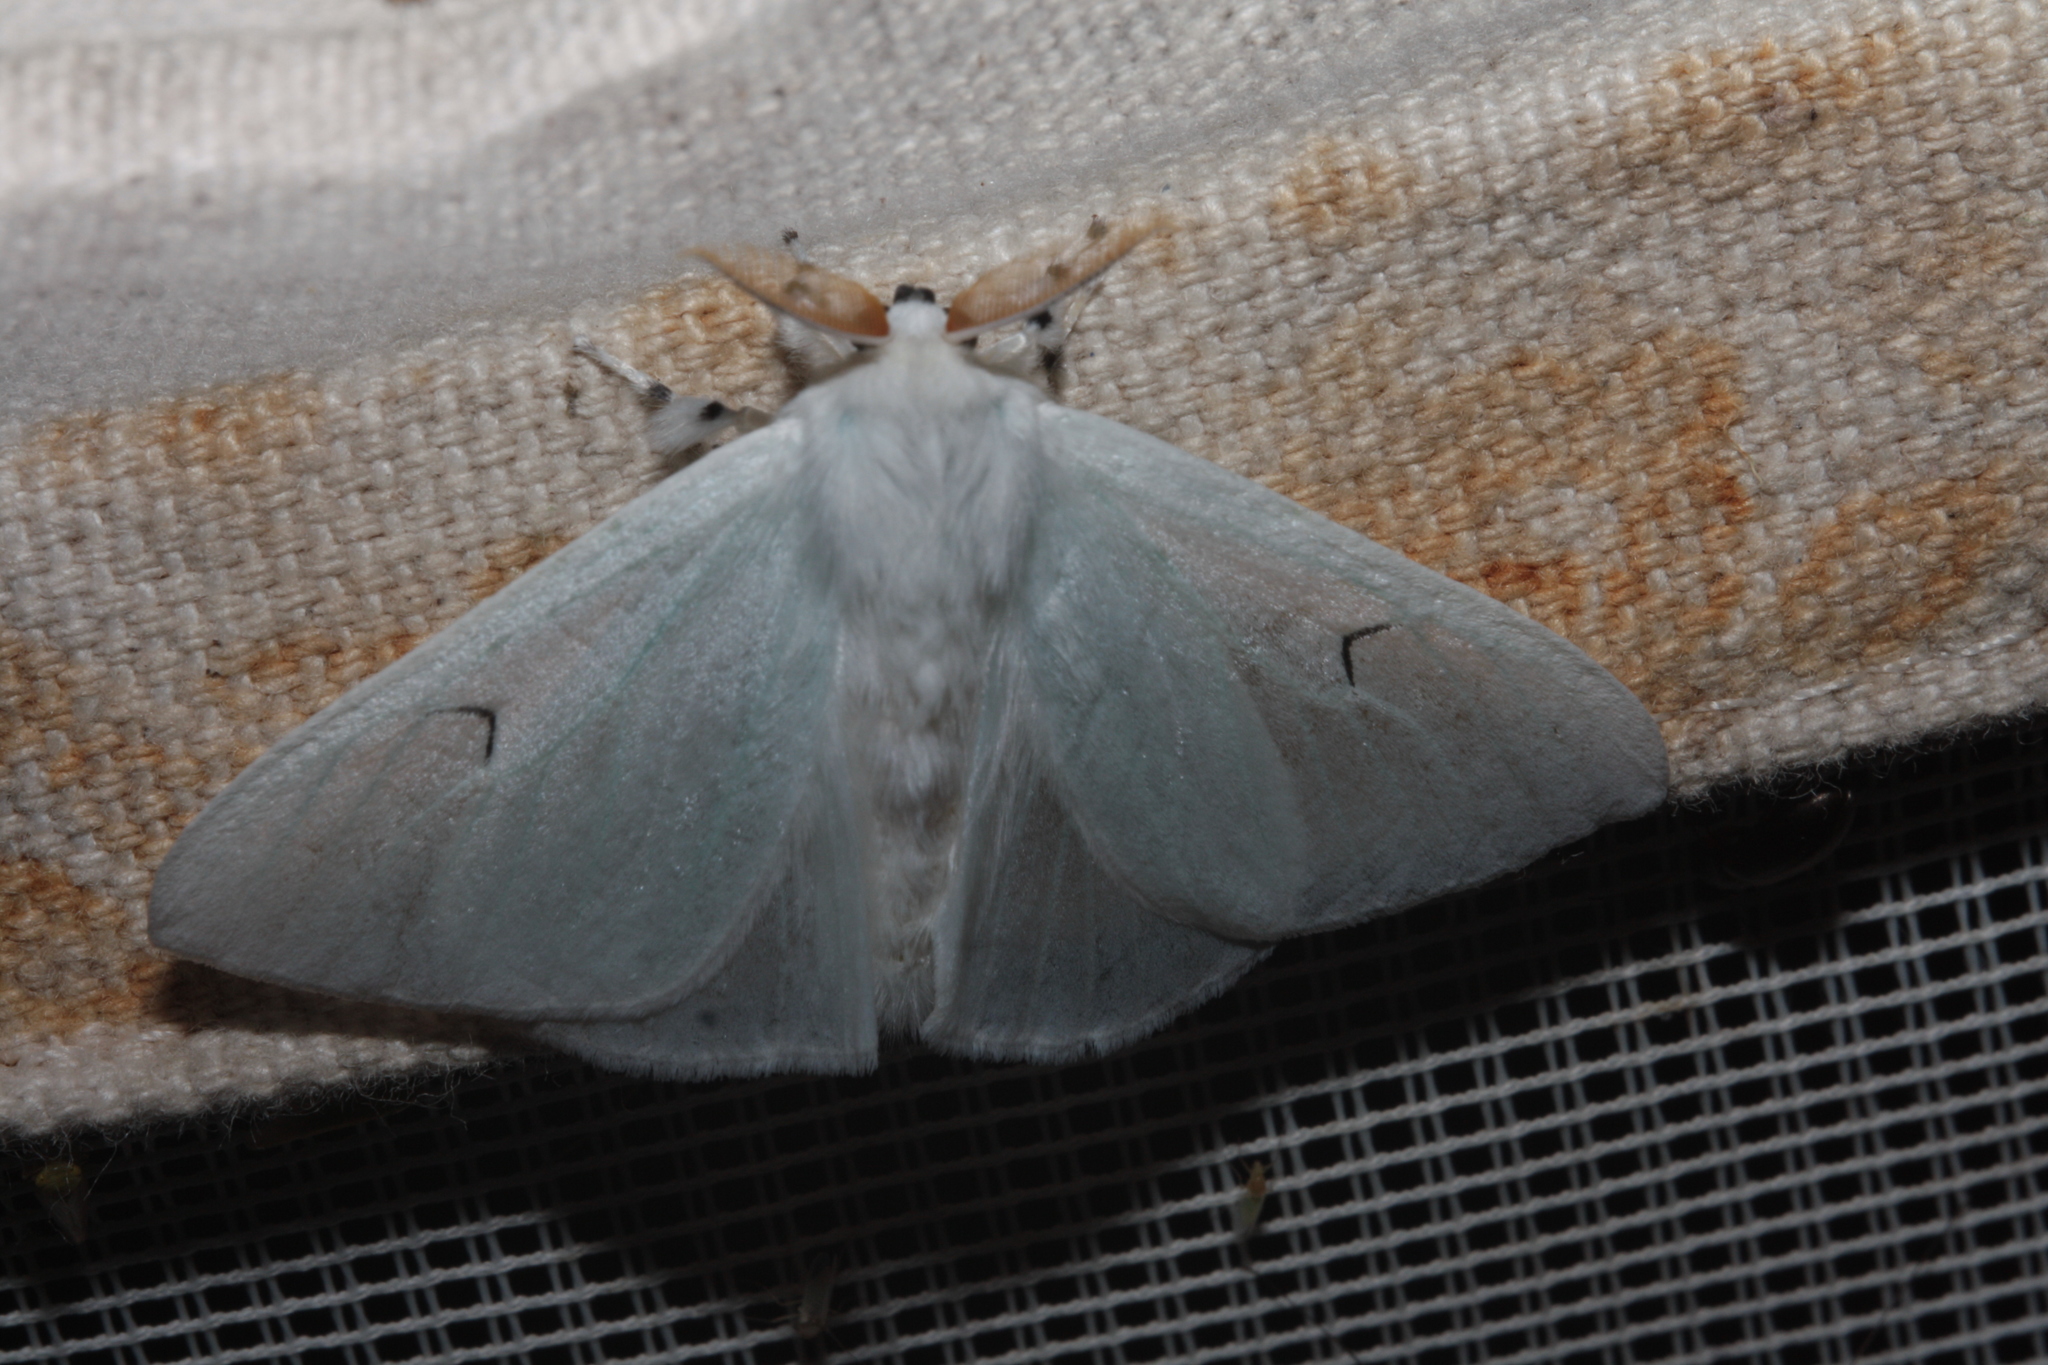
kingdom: Animalia
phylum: Arthropoda
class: Insecta
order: Lepidoptera
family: Erebidae
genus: Arctornis
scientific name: Arctornis l-nigrum
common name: Black v moth
